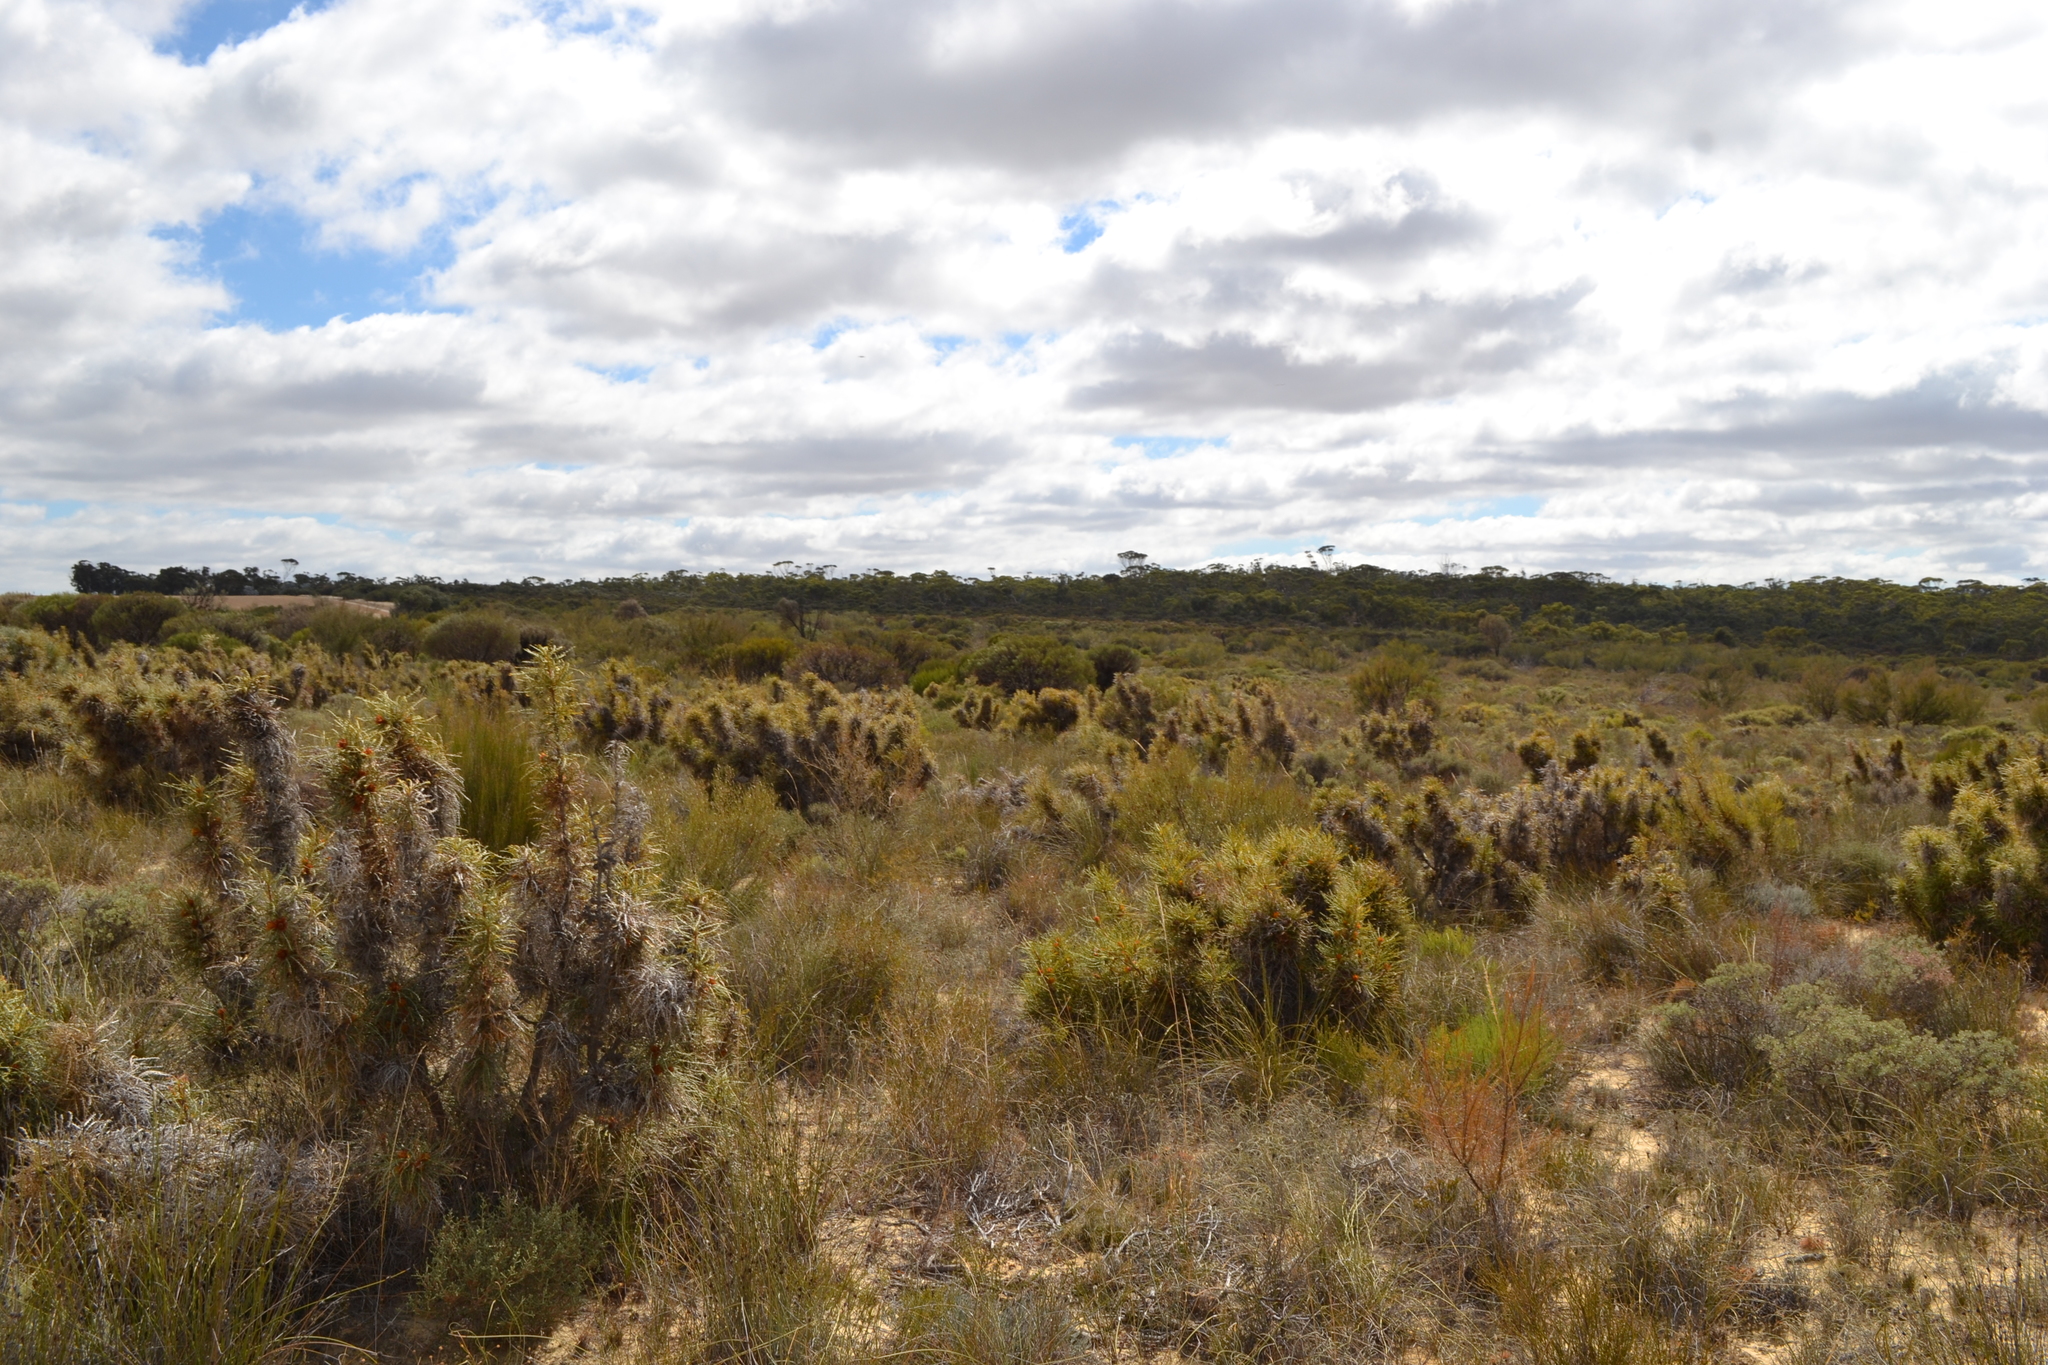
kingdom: Plantae
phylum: Tracheophyta
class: Magnoliopsida
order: Proteales
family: Proteaceae
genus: Banksia
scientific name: Banksia horrida
